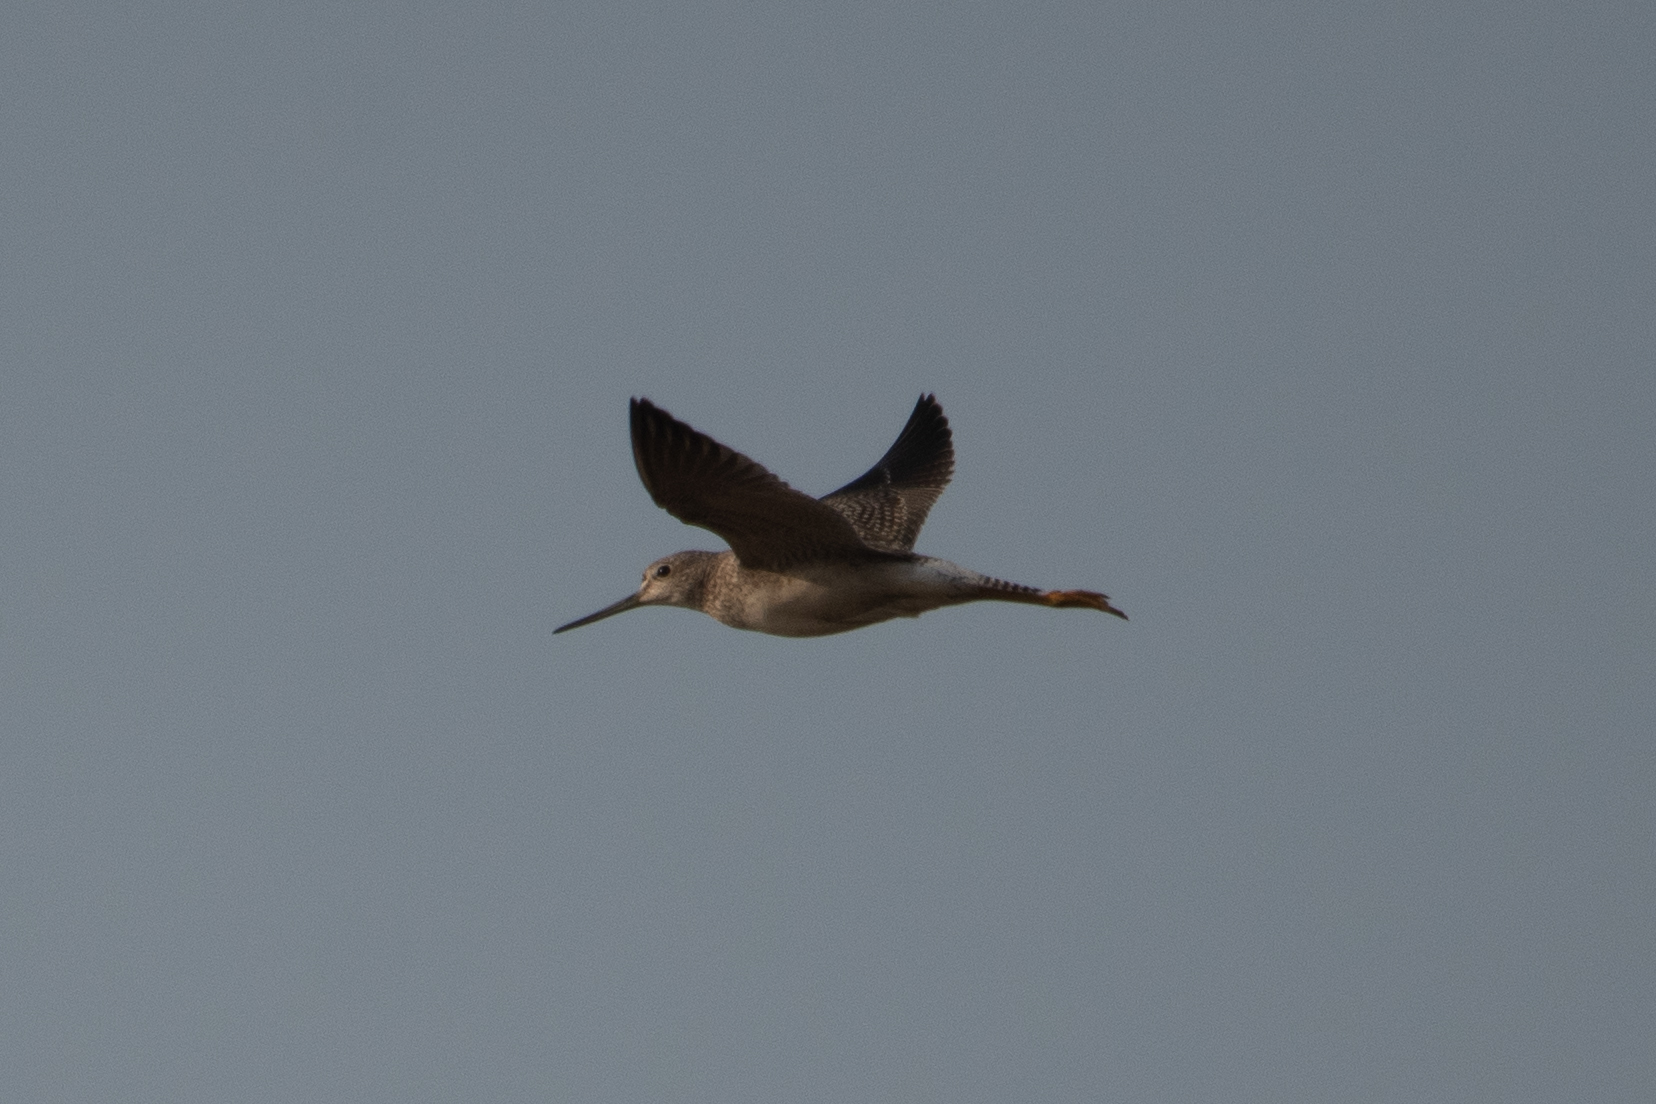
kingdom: Animalia
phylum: Chordata
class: Aves
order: Charadriiformes
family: Scolopacidae
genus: Tringa
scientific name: Tringa melanoleuca
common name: Greater yellowlegs
